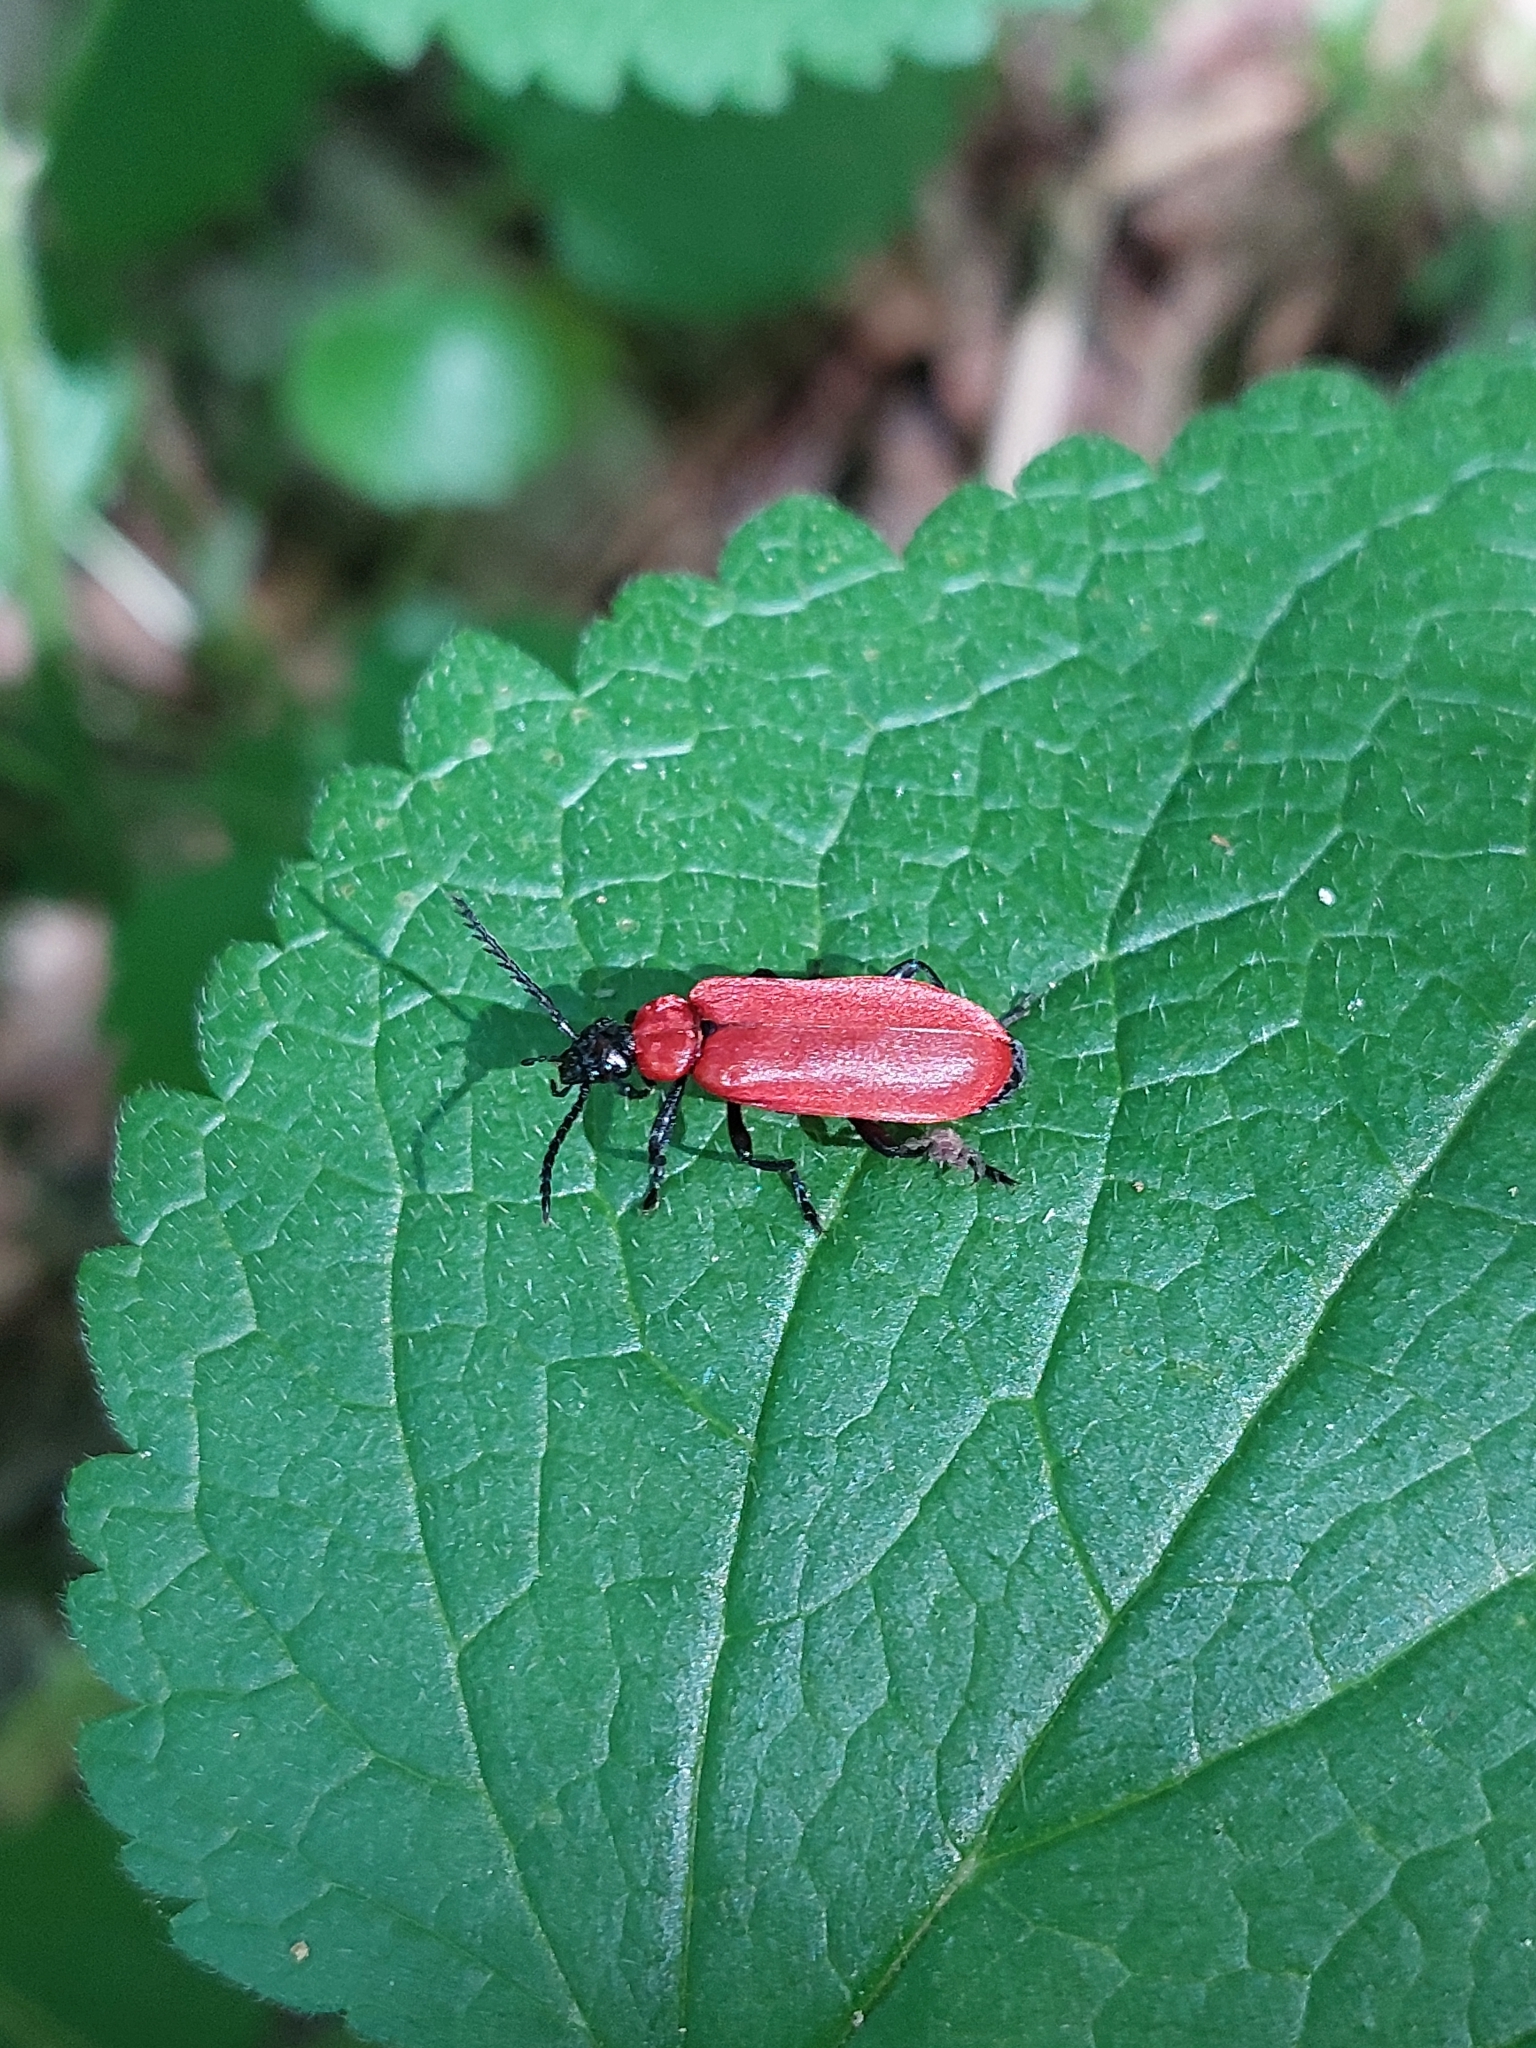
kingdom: Animalia
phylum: Arthropoda
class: Insecta
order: Coleoptera
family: Pyrochroidae
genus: Pyrochroa
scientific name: Pyrochroa coccinea
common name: Black-headed cardinal beetle
